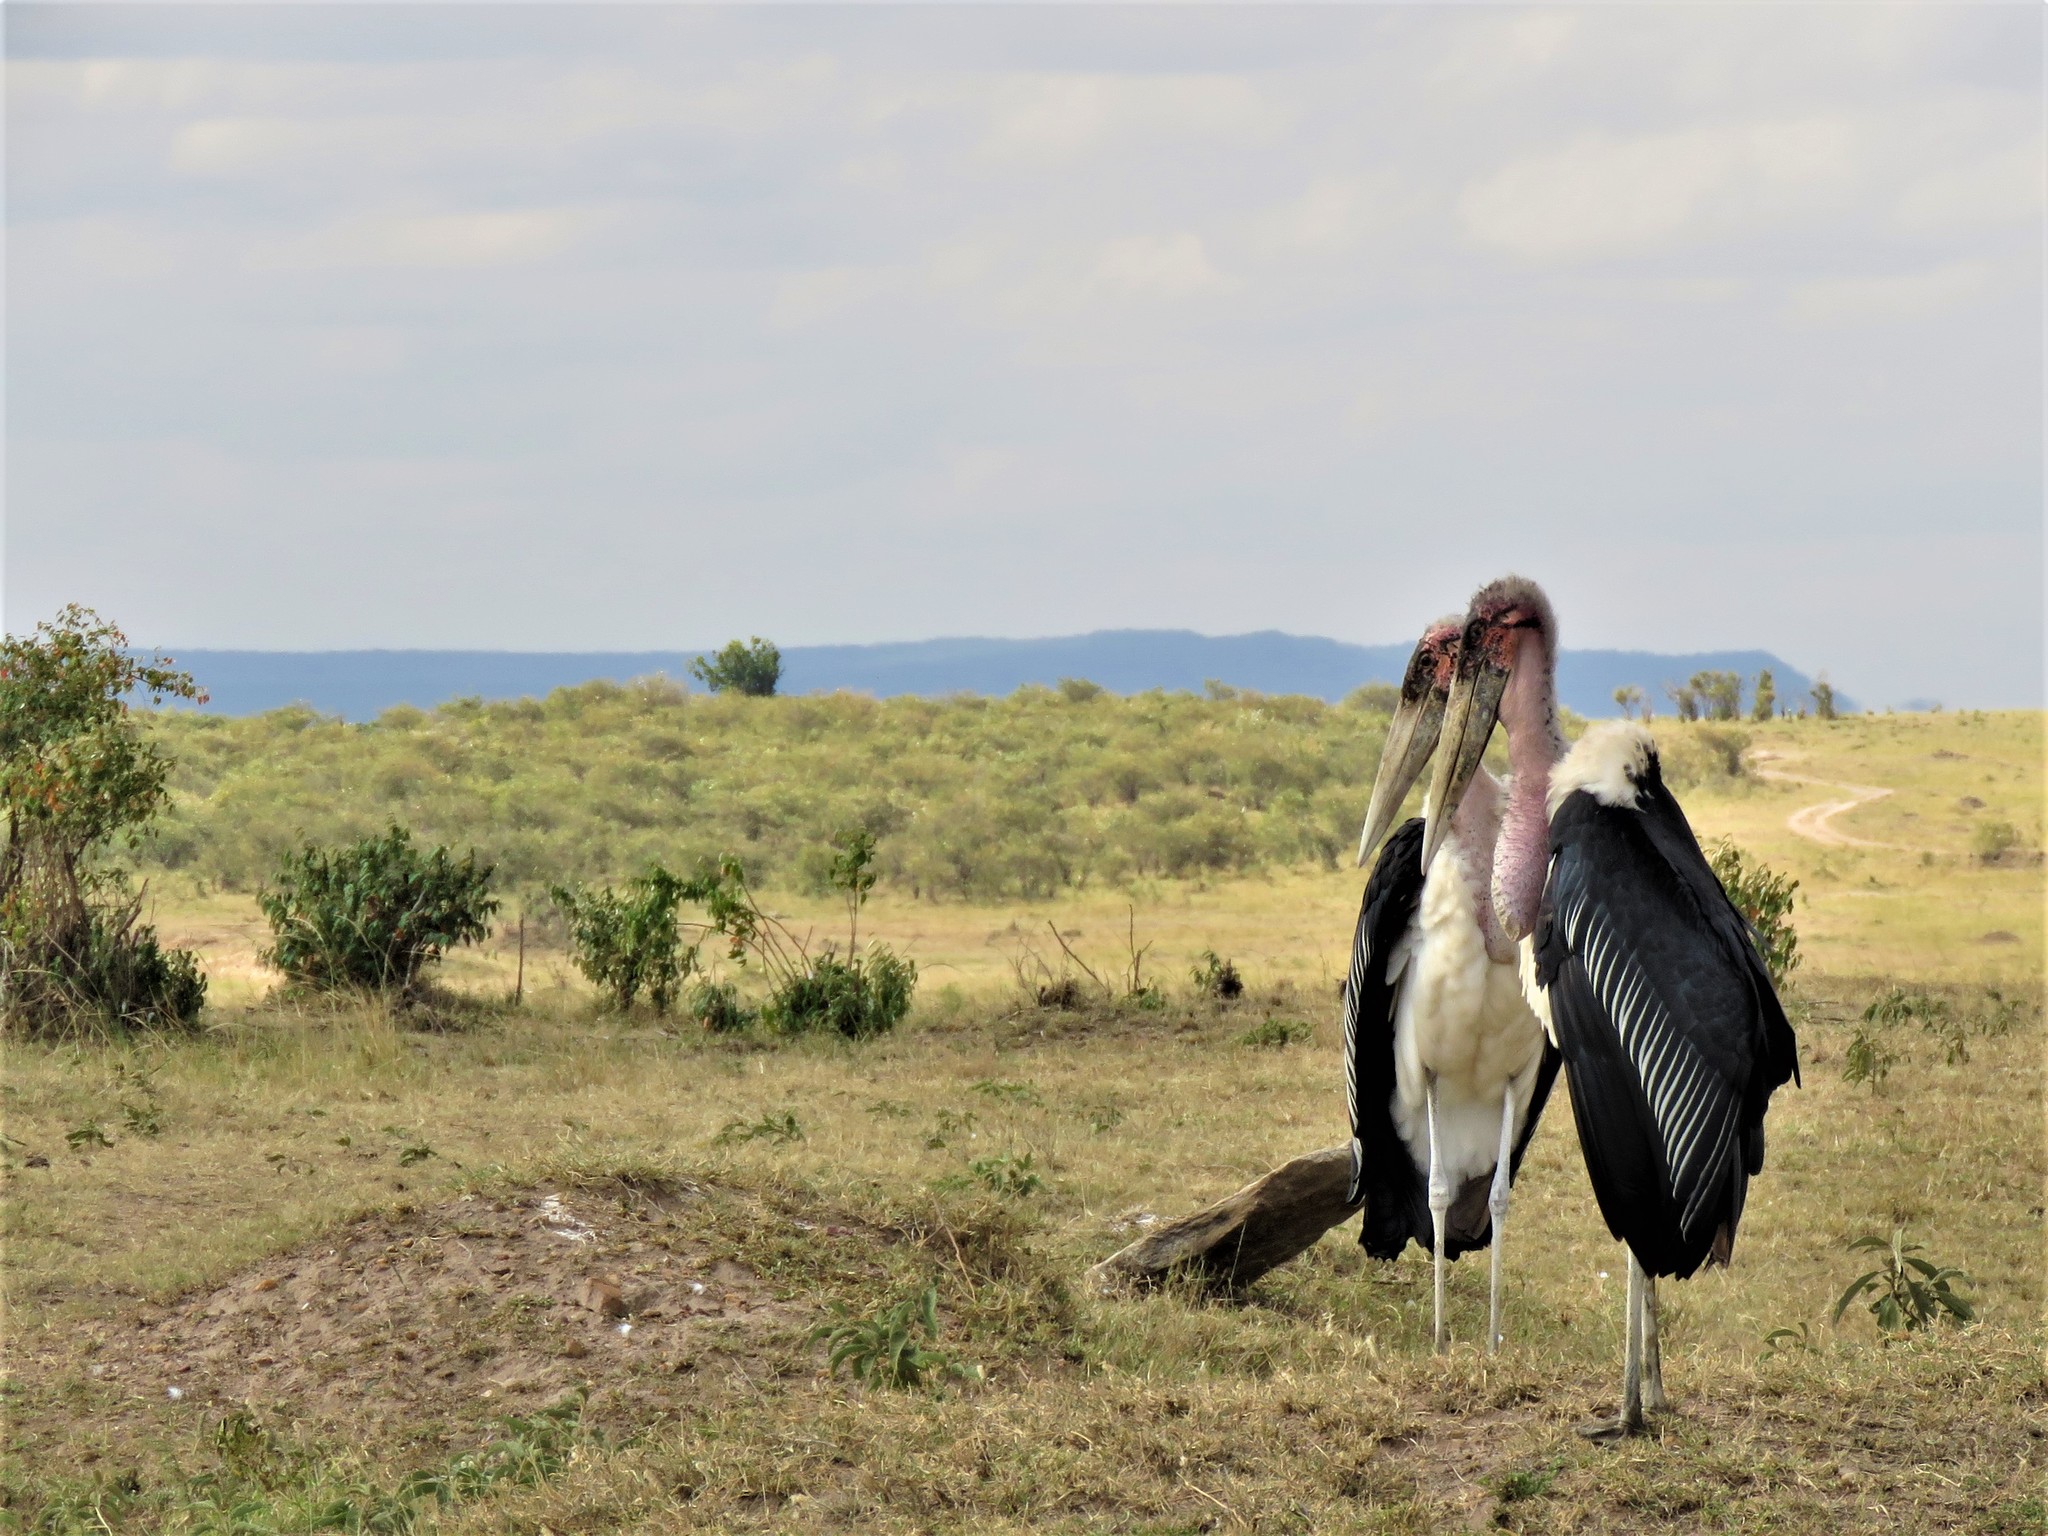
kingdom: Animalia
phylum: Chordata
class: Aves
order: Ciconiiformes
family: Ciconiidae
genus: Leptoptilos
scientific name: Leptoptilos crumenifer
